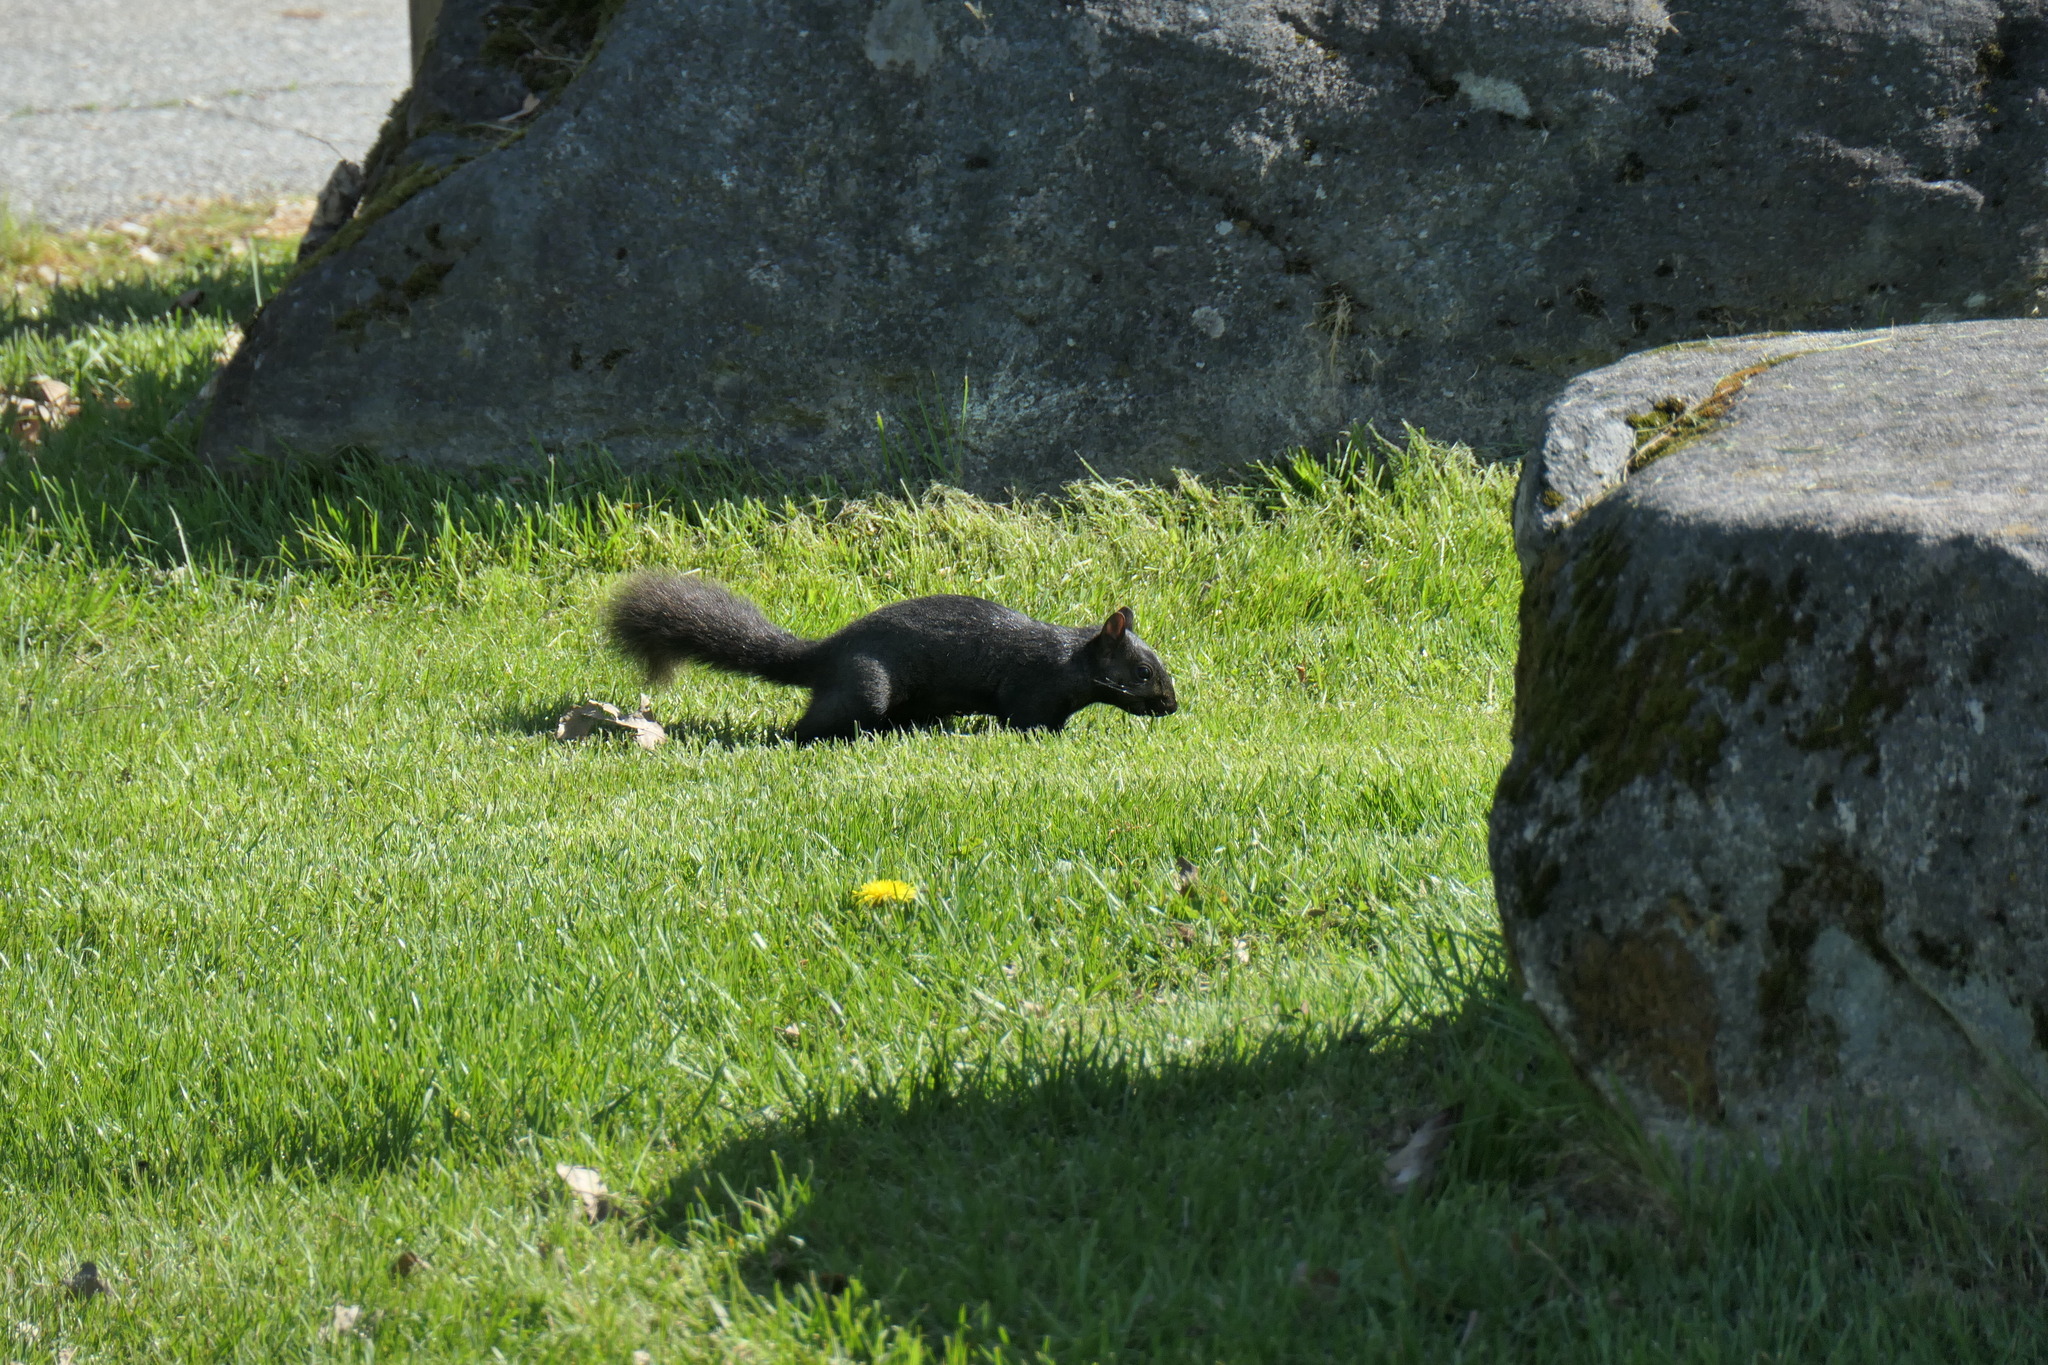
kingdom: Animalia
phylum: Chordata
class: Mammalia
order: Rodentia
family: Sciuridae
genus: Sciurus
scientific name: Sciurus carolinensis
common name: Eastern gray squirrel
